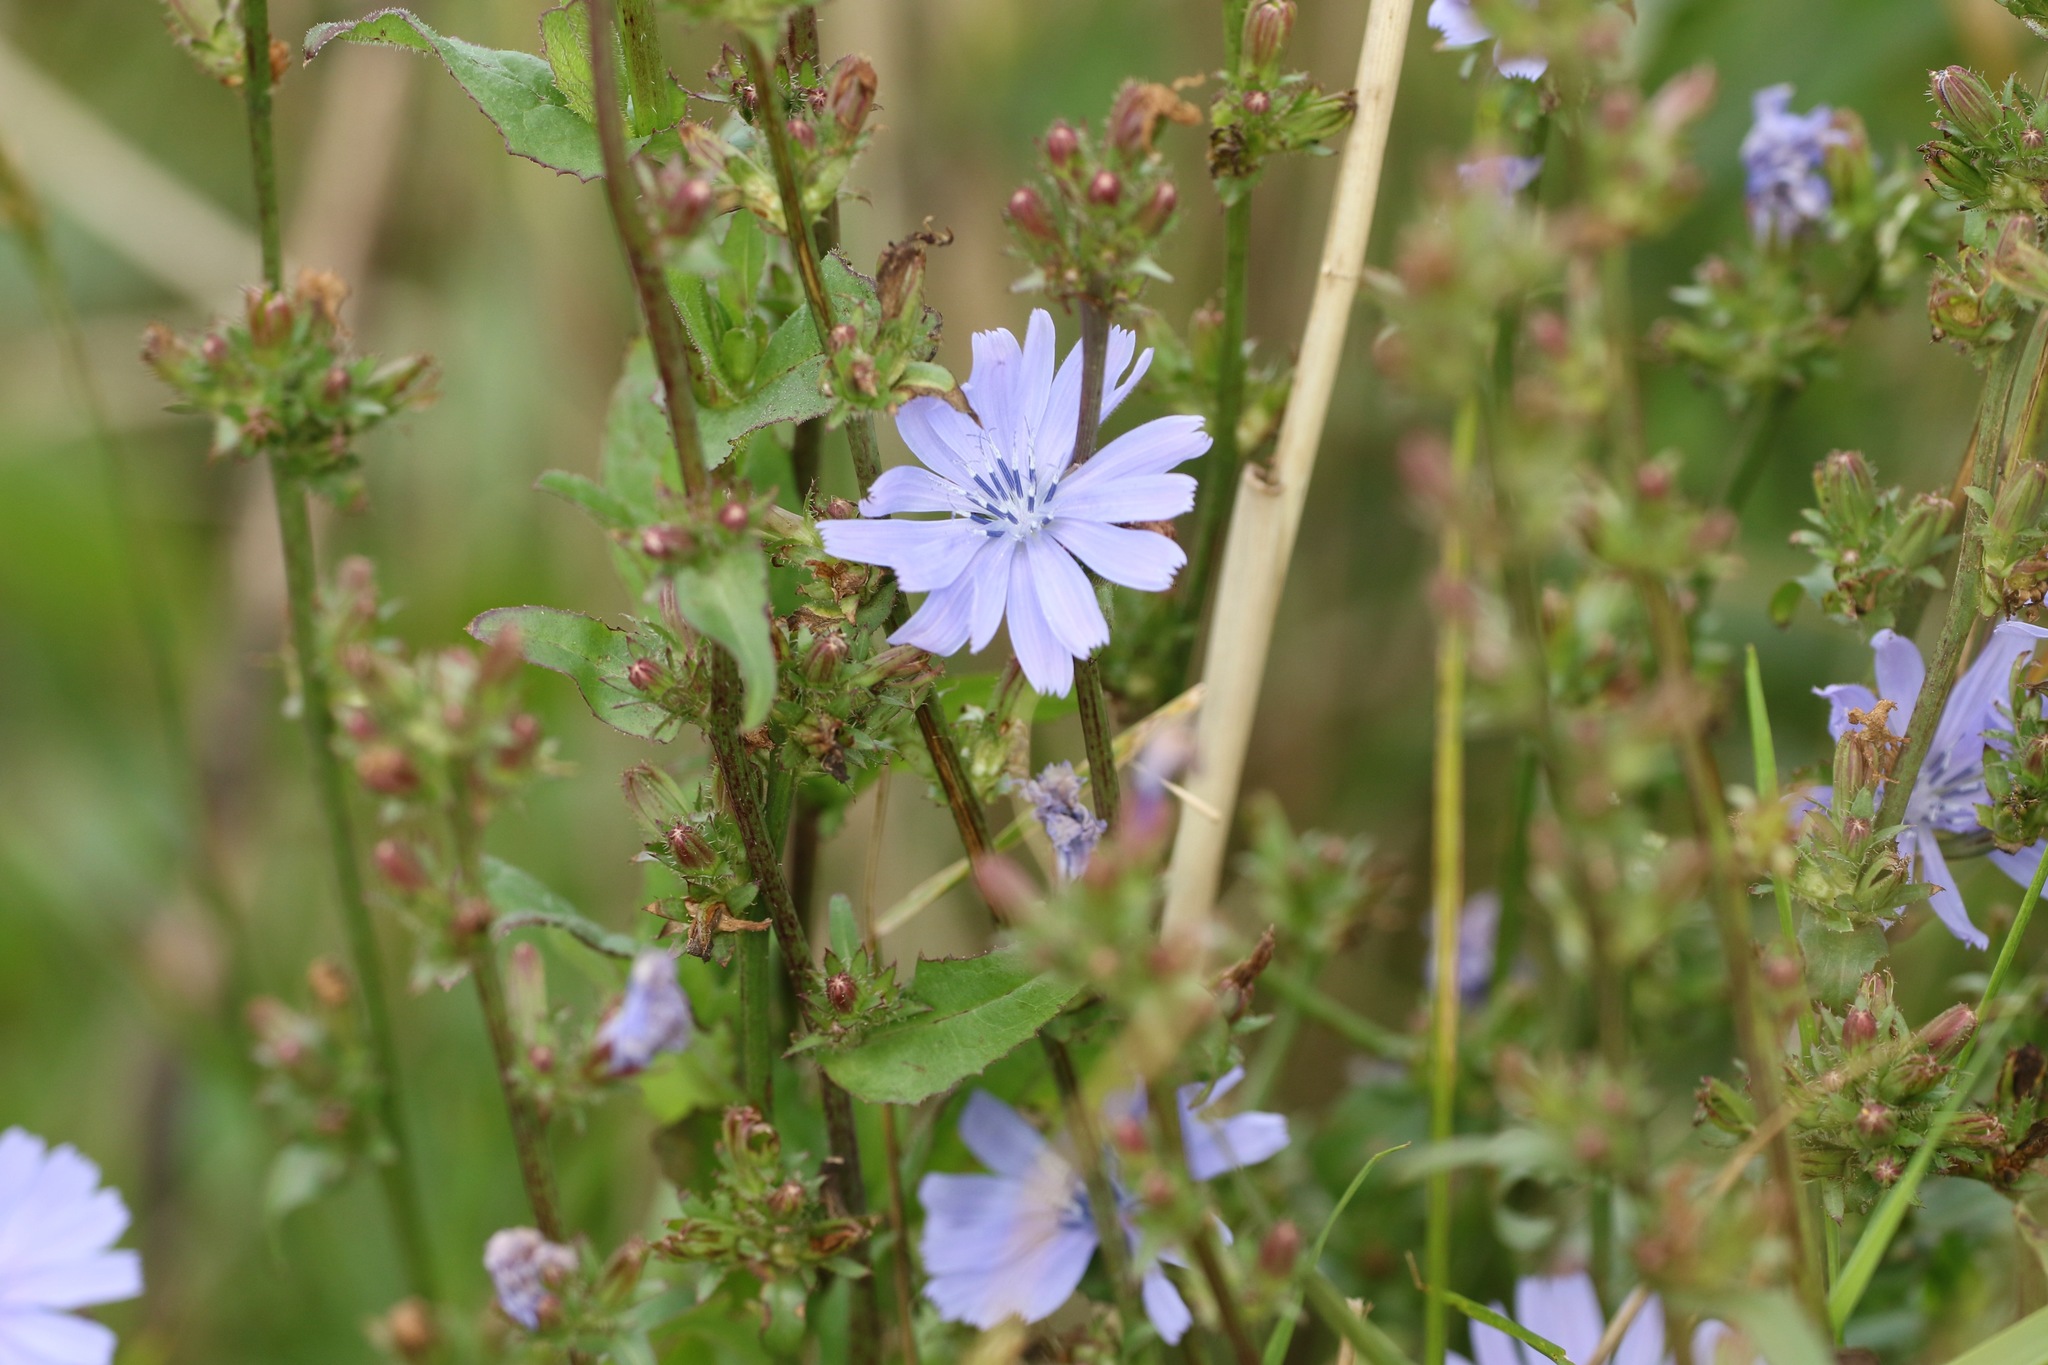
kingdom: Plantae
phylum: Tracheophyta
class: Magnoliopsida
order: Asterales
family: Asteraceae
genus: Cichorium
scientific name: Cichorium intybus
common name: Chicory
